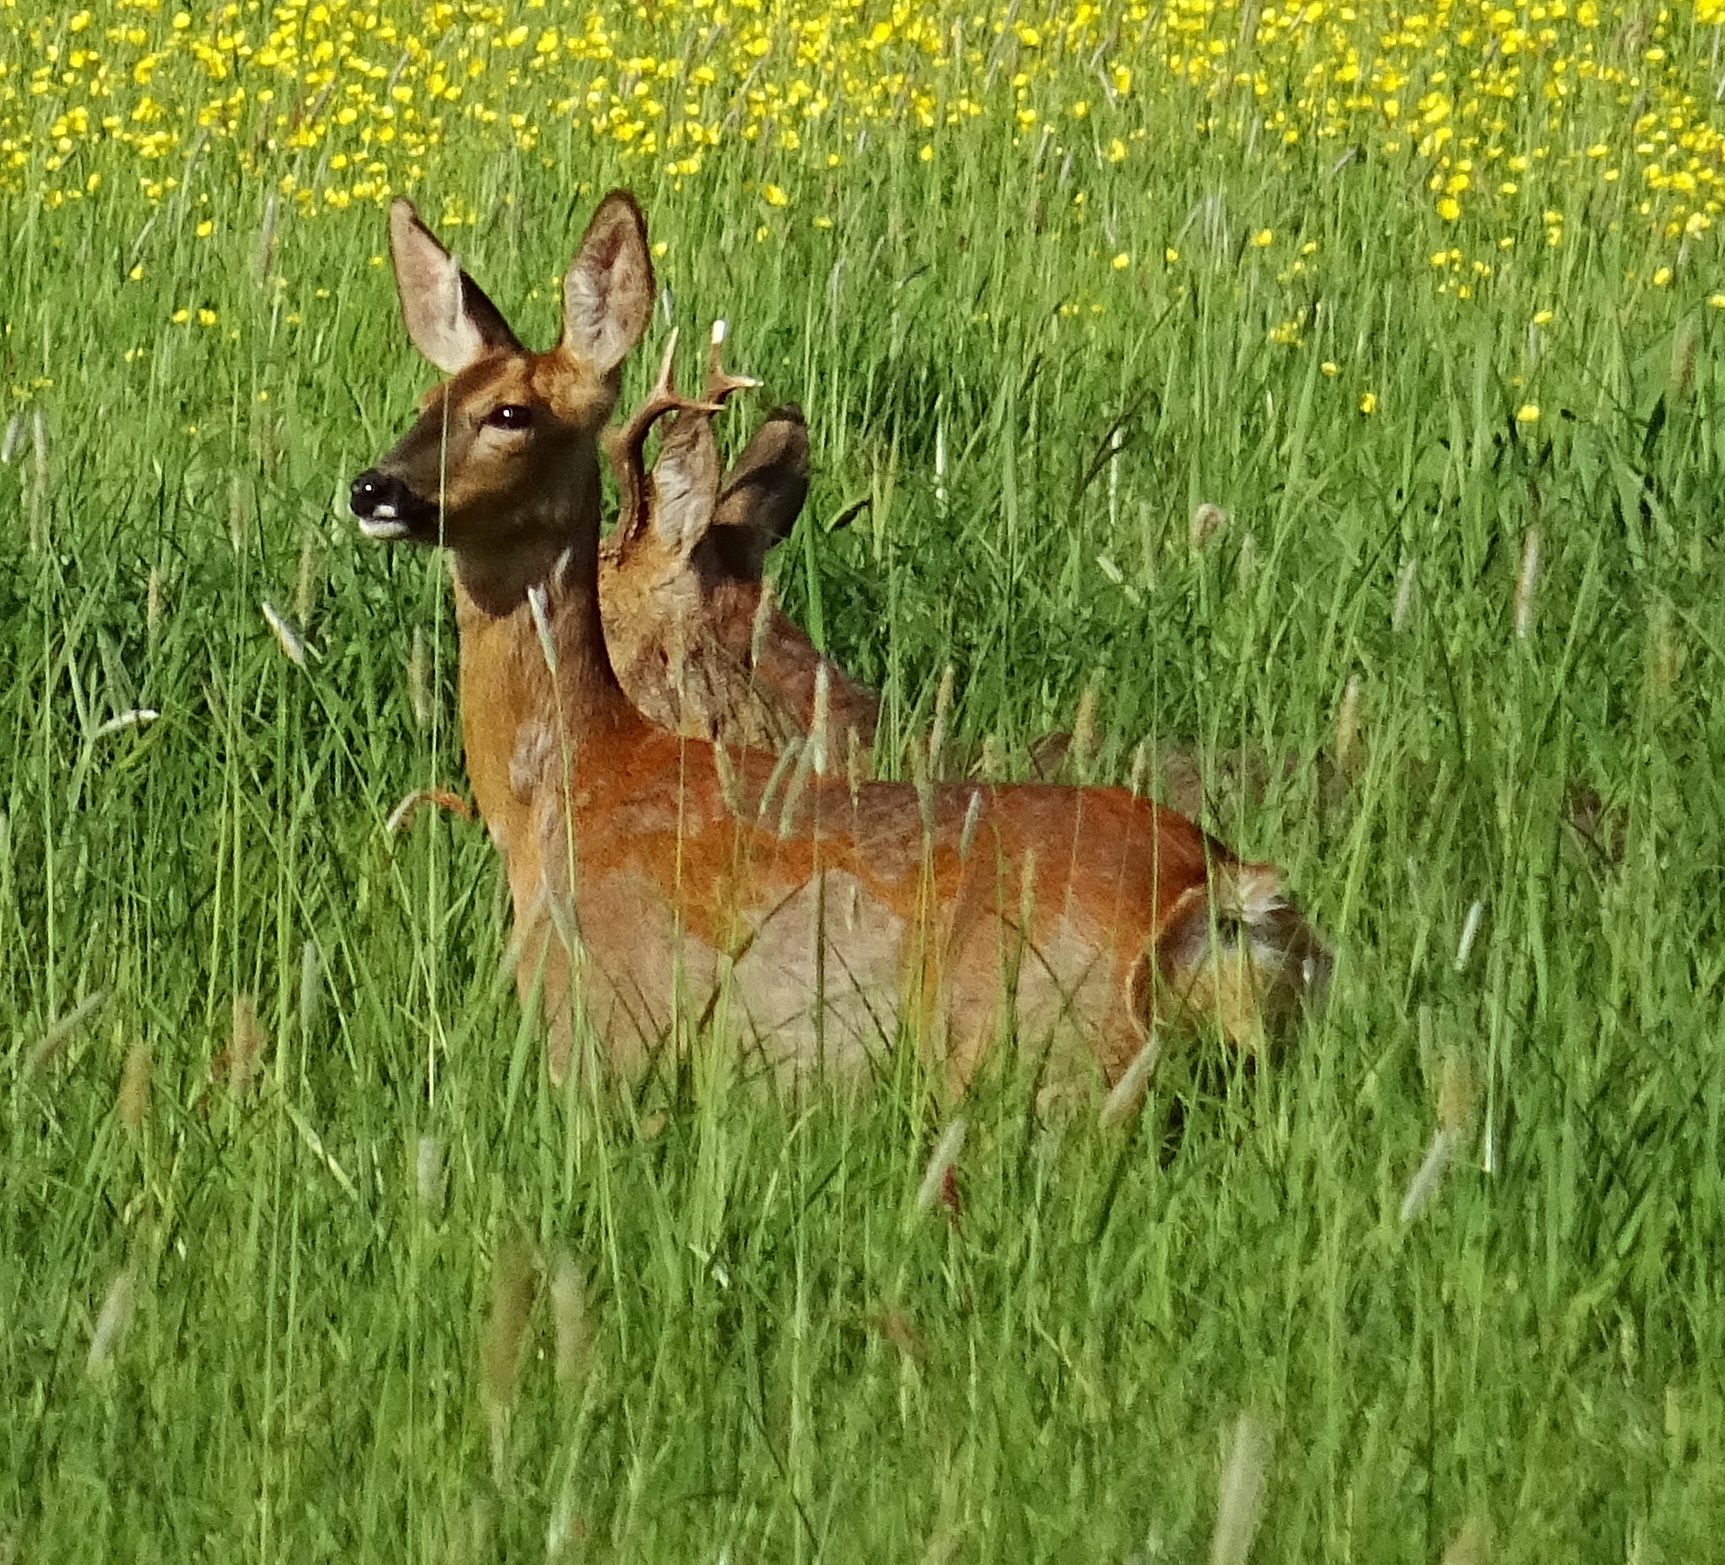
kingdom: Animalia
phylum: Chordata
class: Mammalia
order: Artiodactyla
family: Cervidae
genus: Capreolus
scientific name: Capreolus capreolus
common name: Western roe deer
